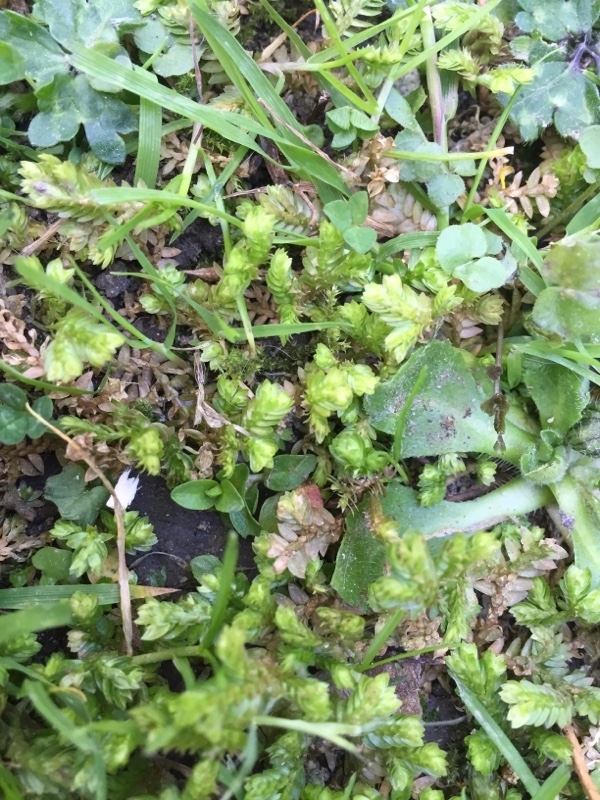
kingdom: Plantae
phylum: Tracheophyta
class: Lycopodiopsida
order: Selaginellales
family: Selaginellaceae
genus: Selaginella
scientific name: Selaginella kraussiana
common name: Krauss' spikemoss
